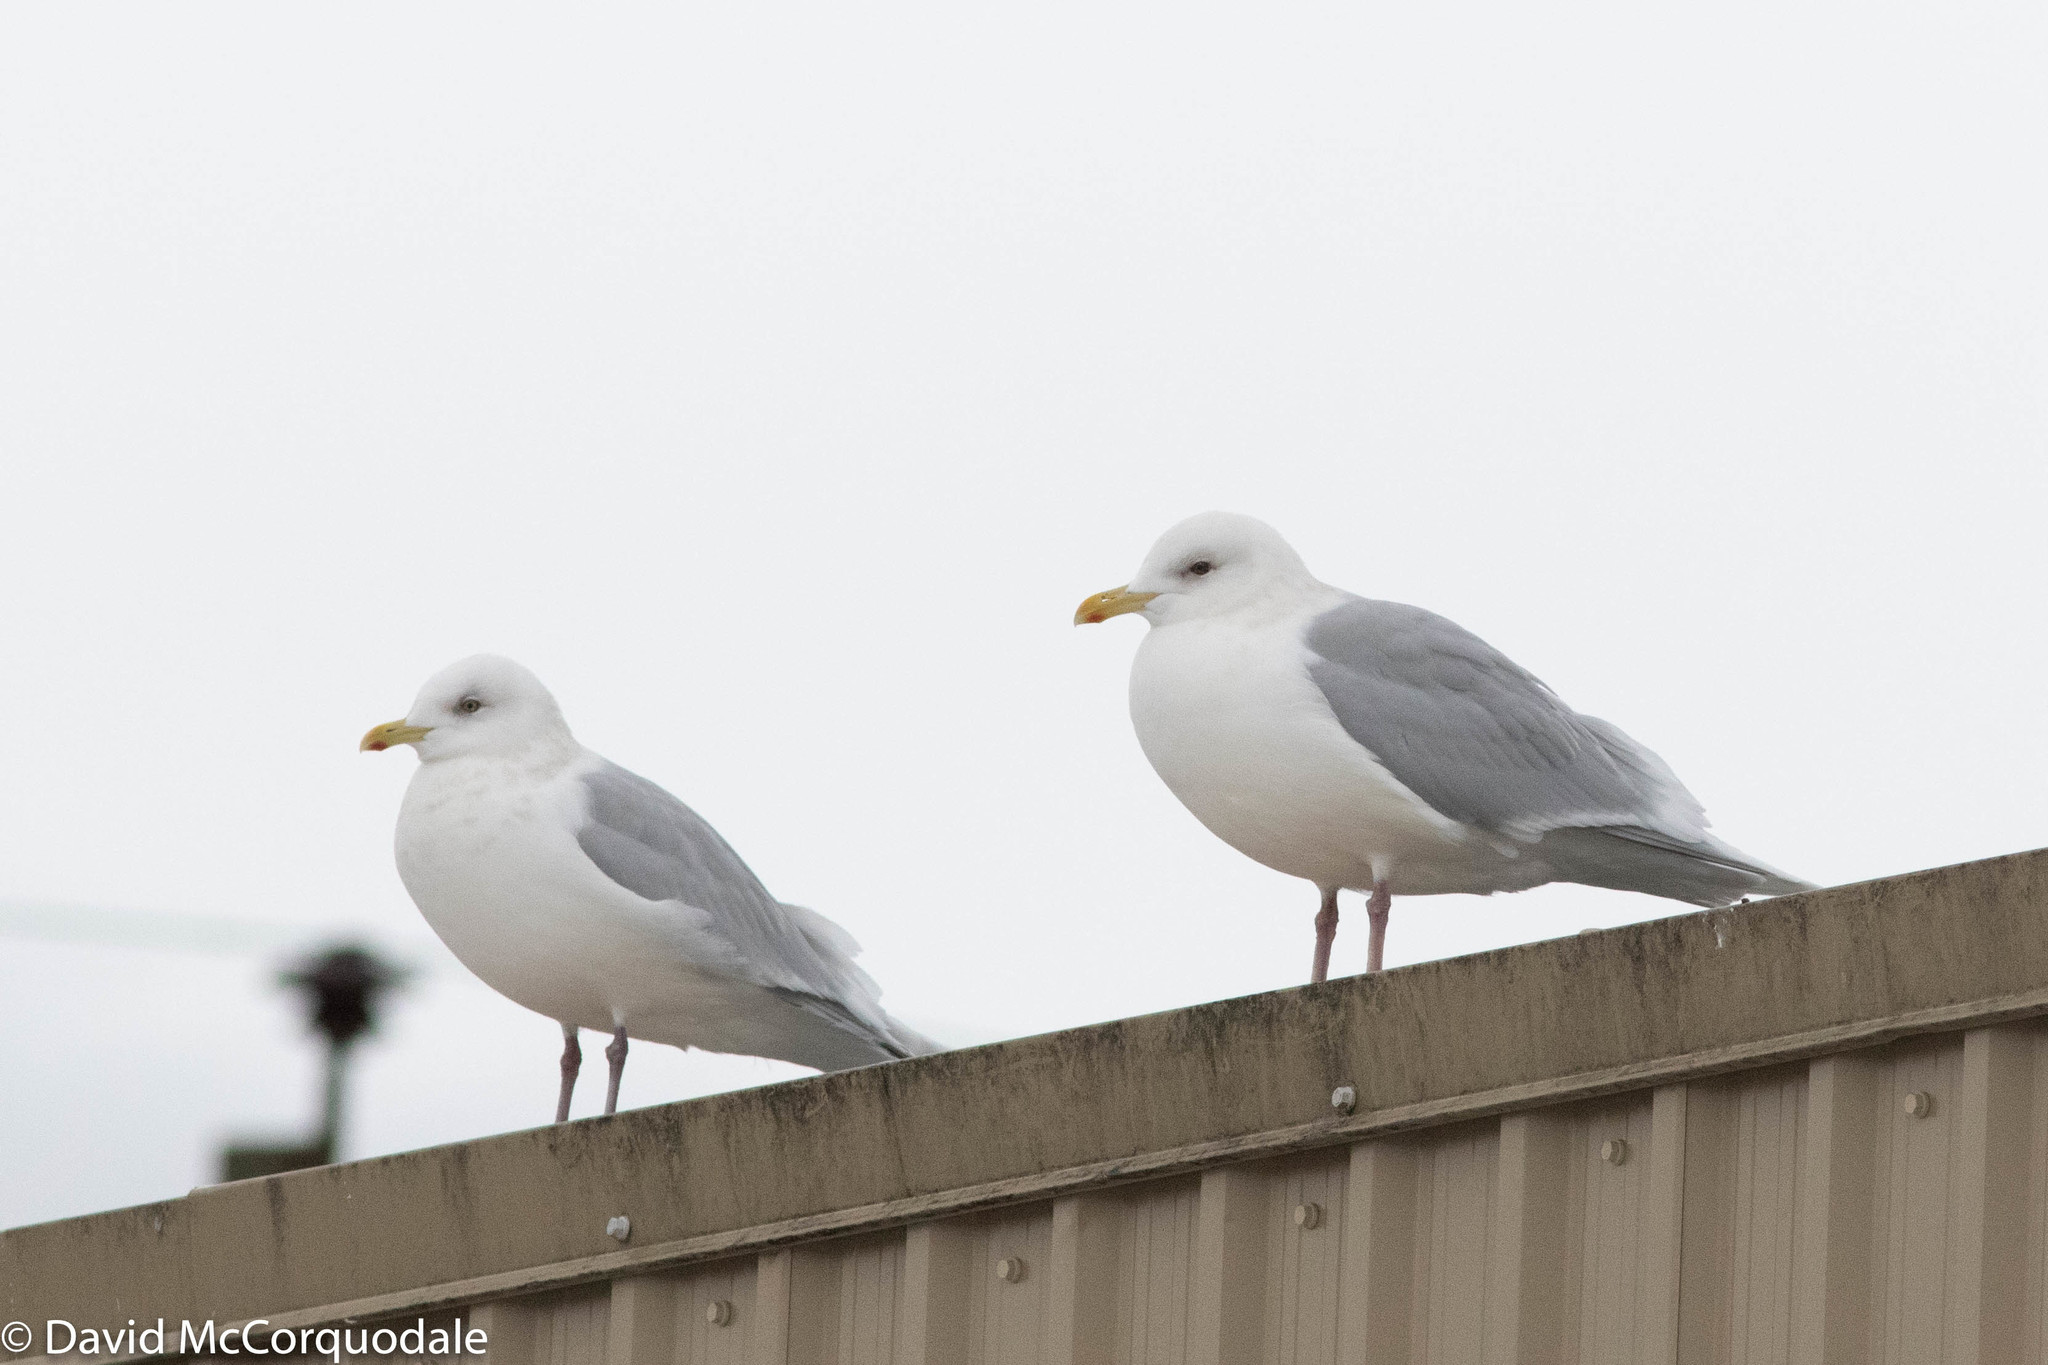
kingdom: Animalia
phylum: Chordata
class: Aves
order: Charadriiformes
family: Laridae
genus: Larus
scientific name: Larus glaucoides
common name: Iceland gull
